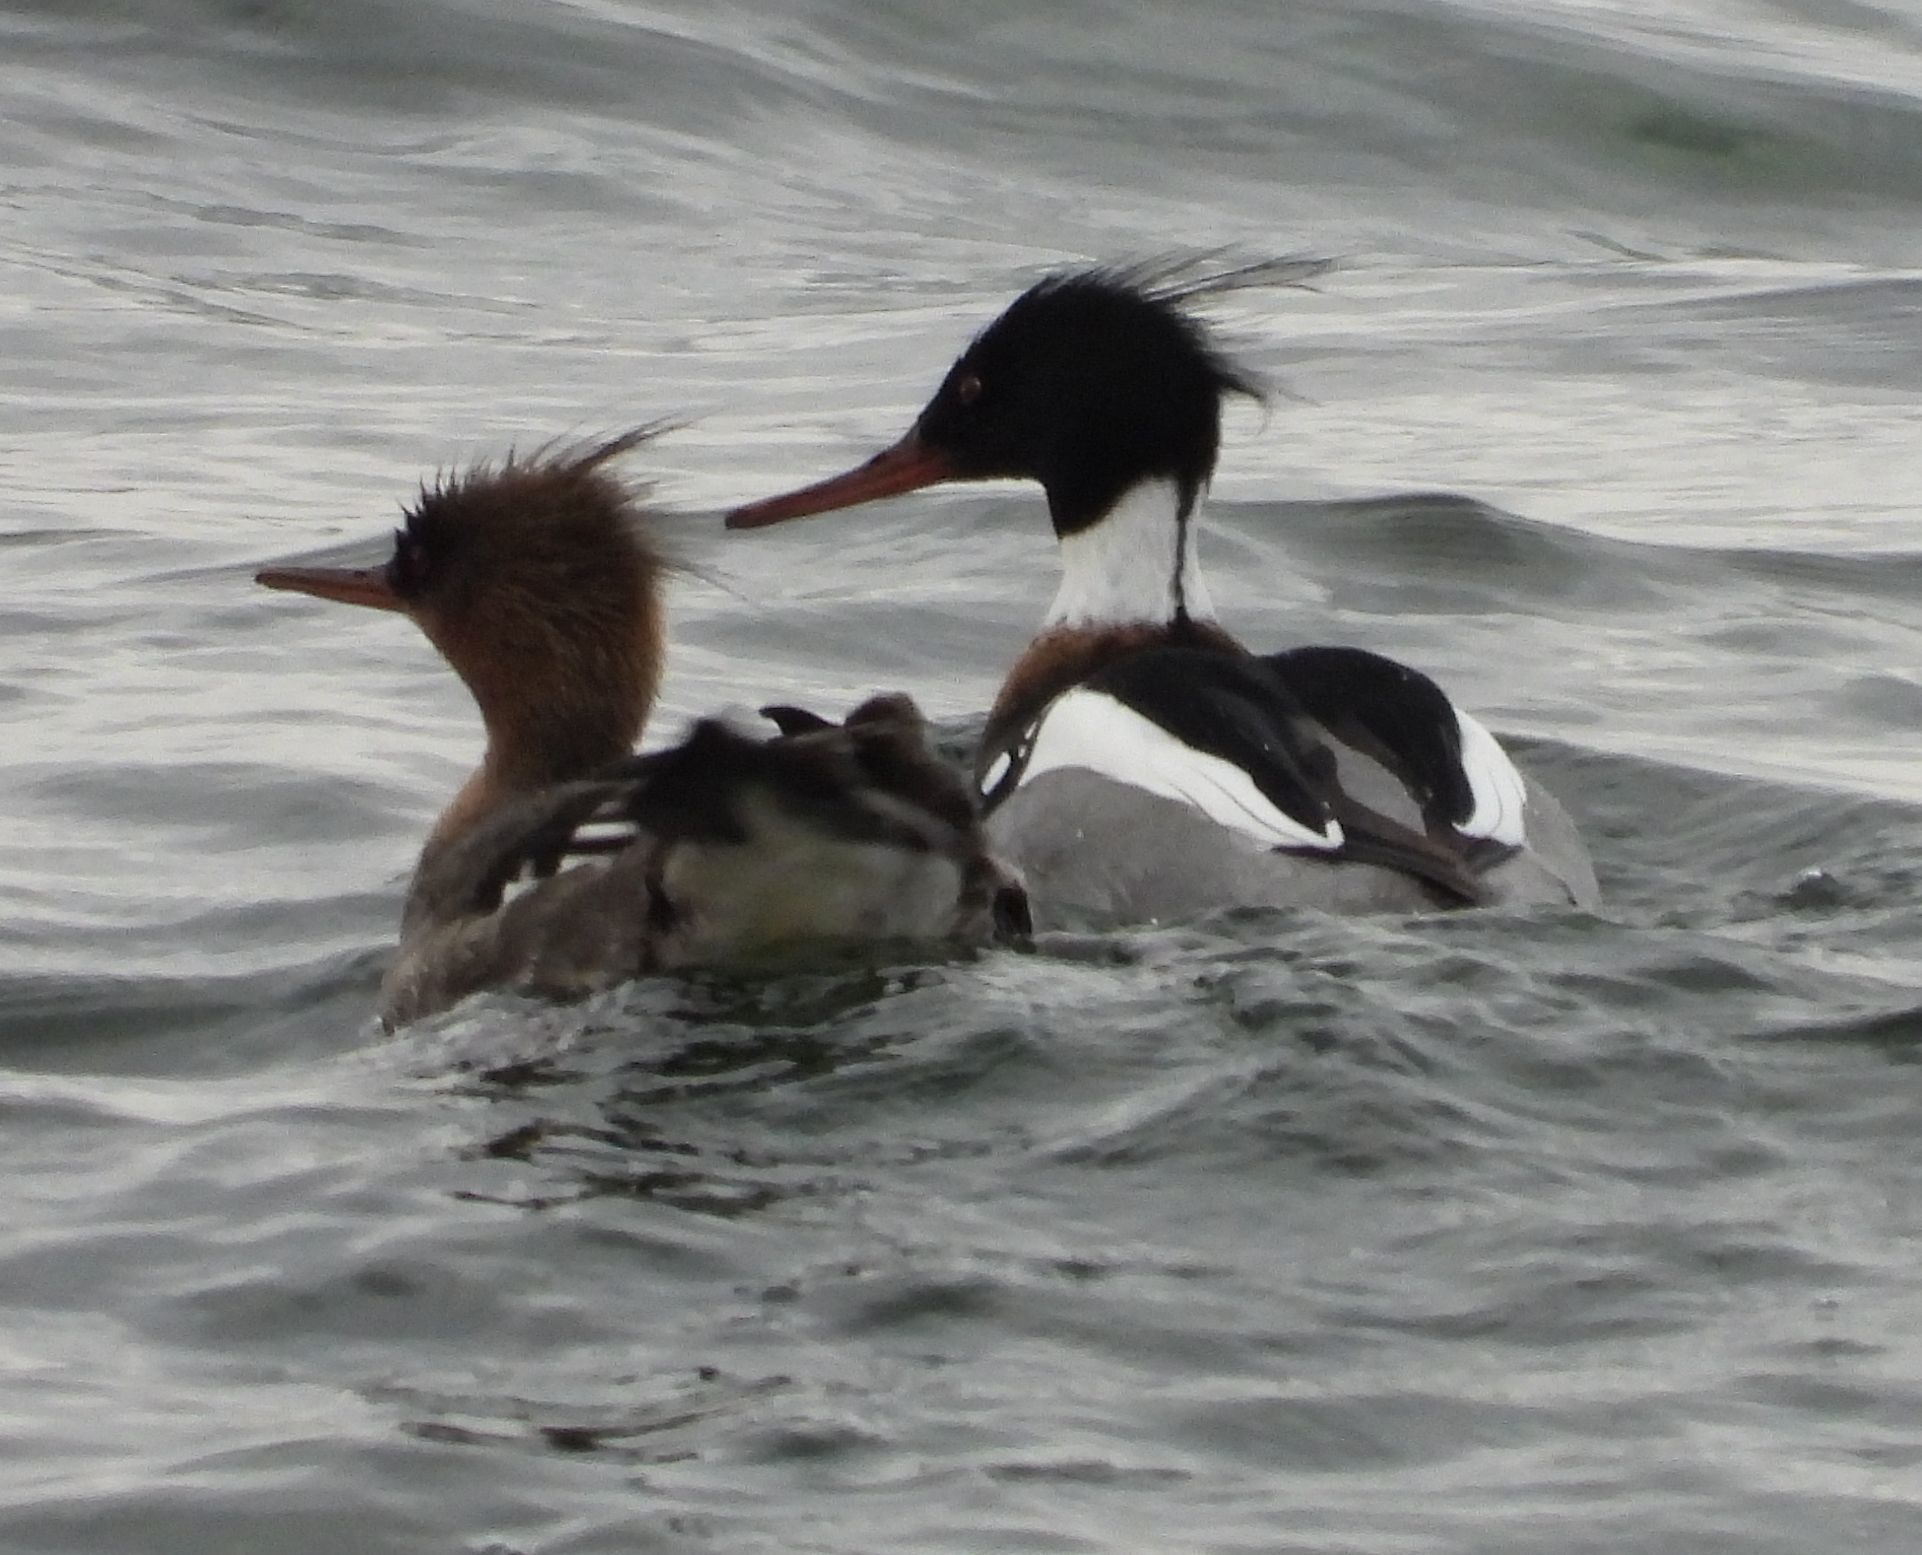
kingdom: Animalia
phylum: Chordata
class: Aves
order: Anseriformes
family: Anatidae
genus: Mergus
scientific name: Mergus serrator
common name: Red-breasted merganser
